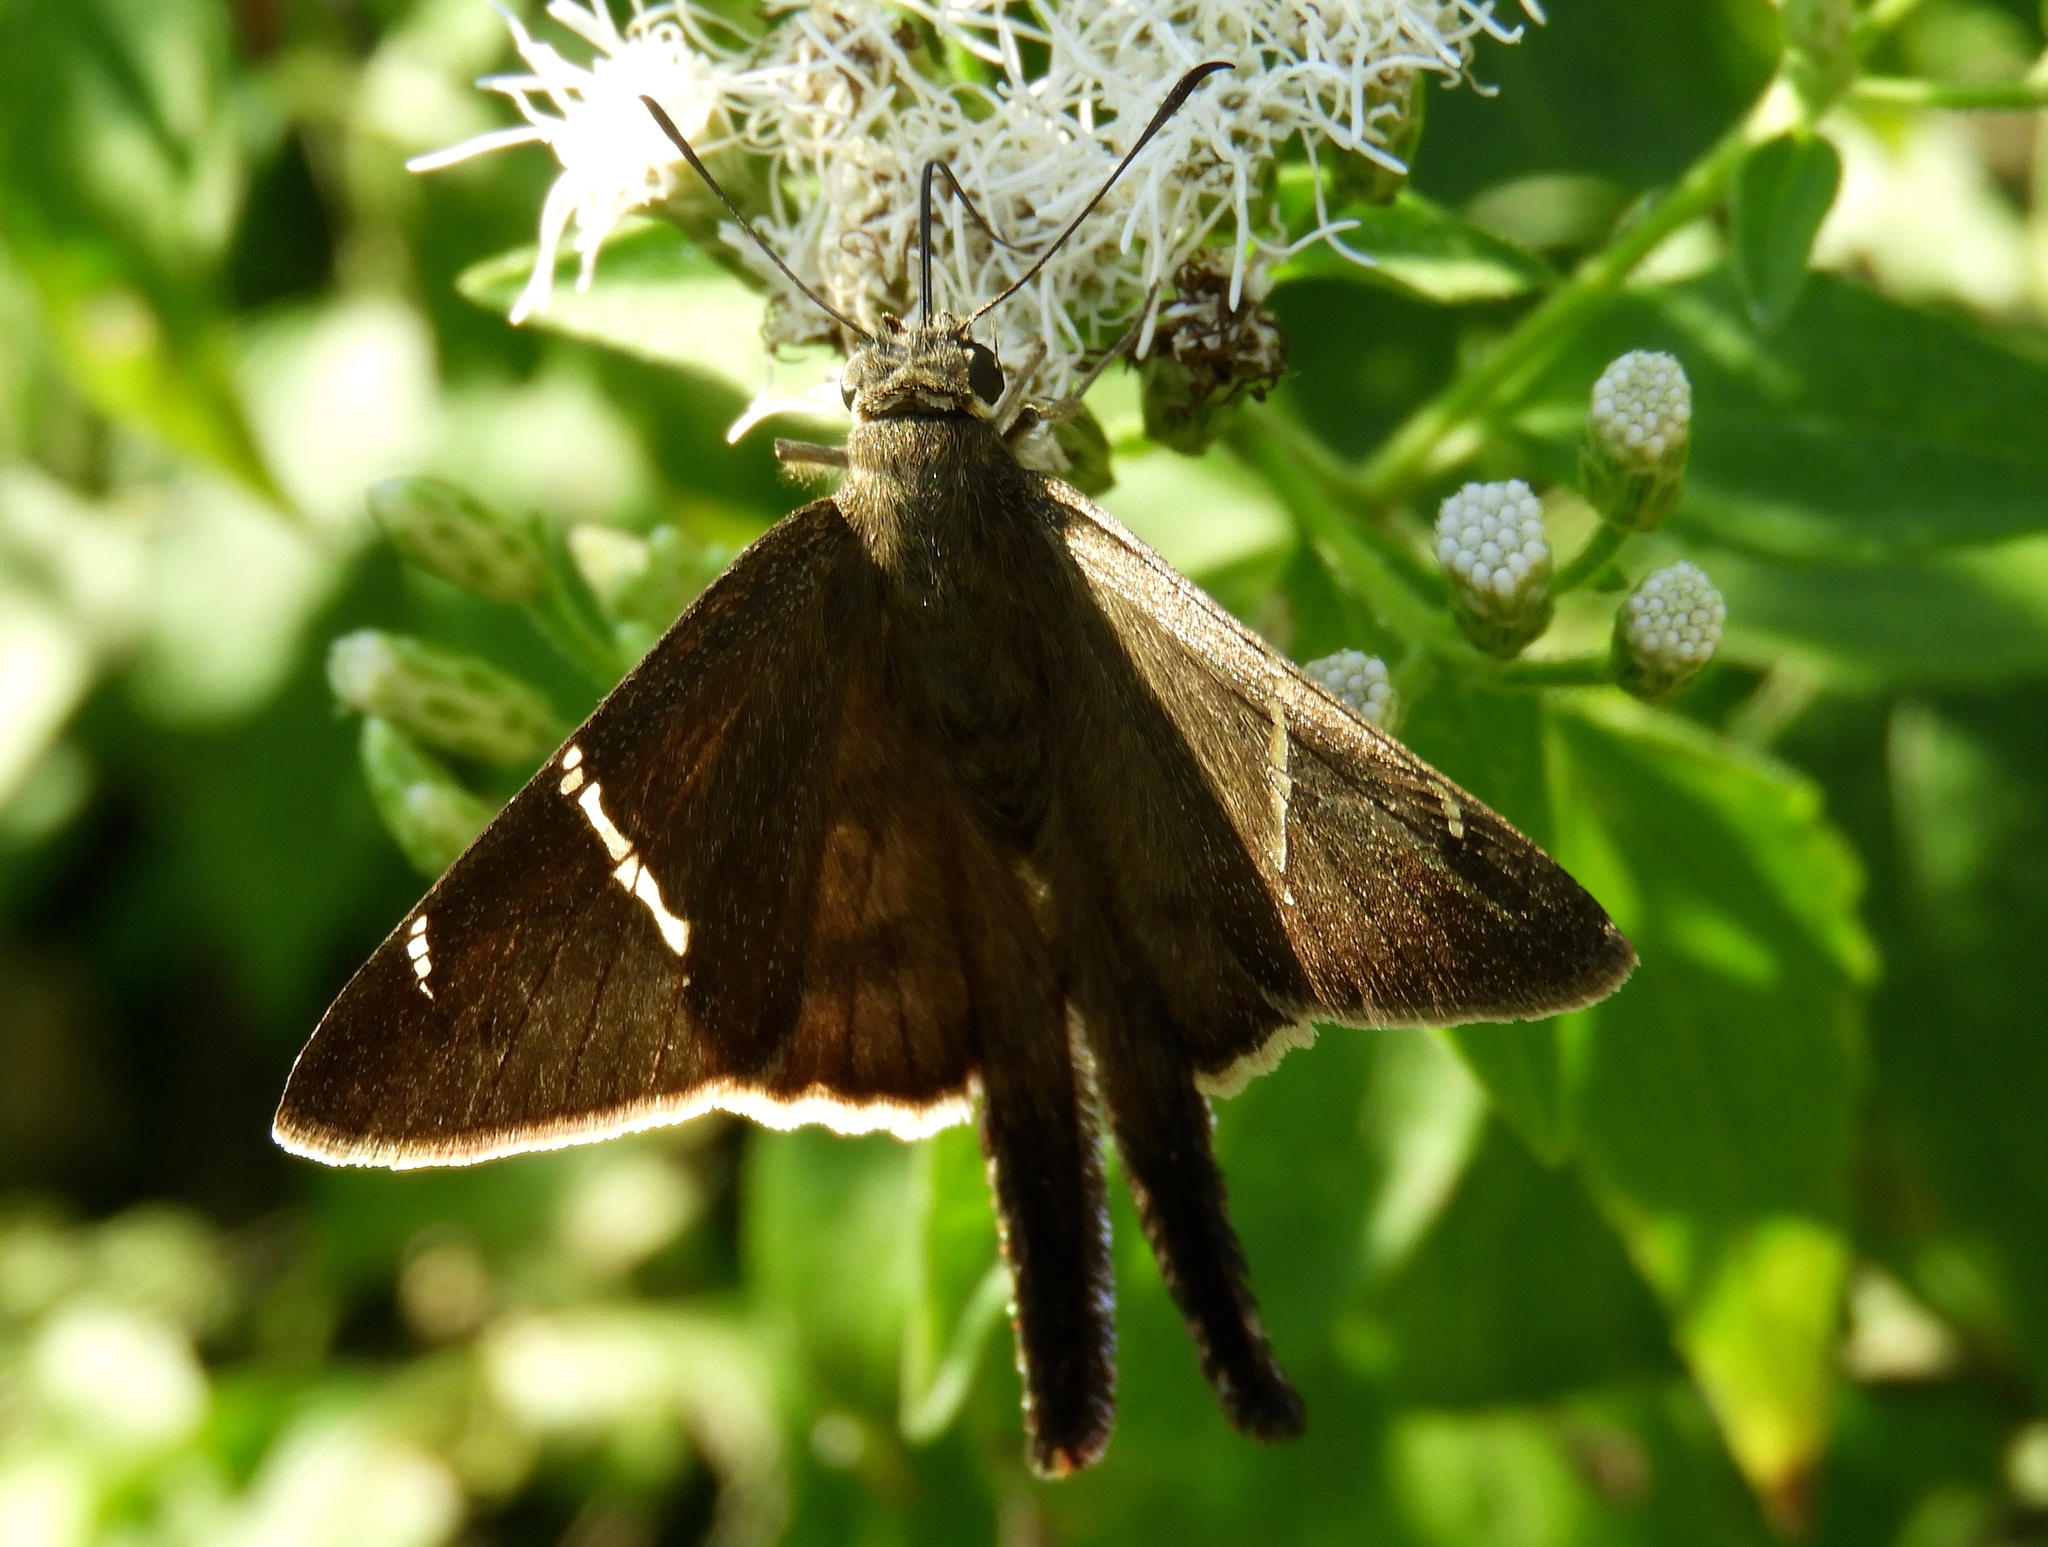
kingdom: Animalia
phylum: Arthropoda
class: Insecta
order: Lepidoptera
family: Hesperiidae
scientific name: Hesperiidae
